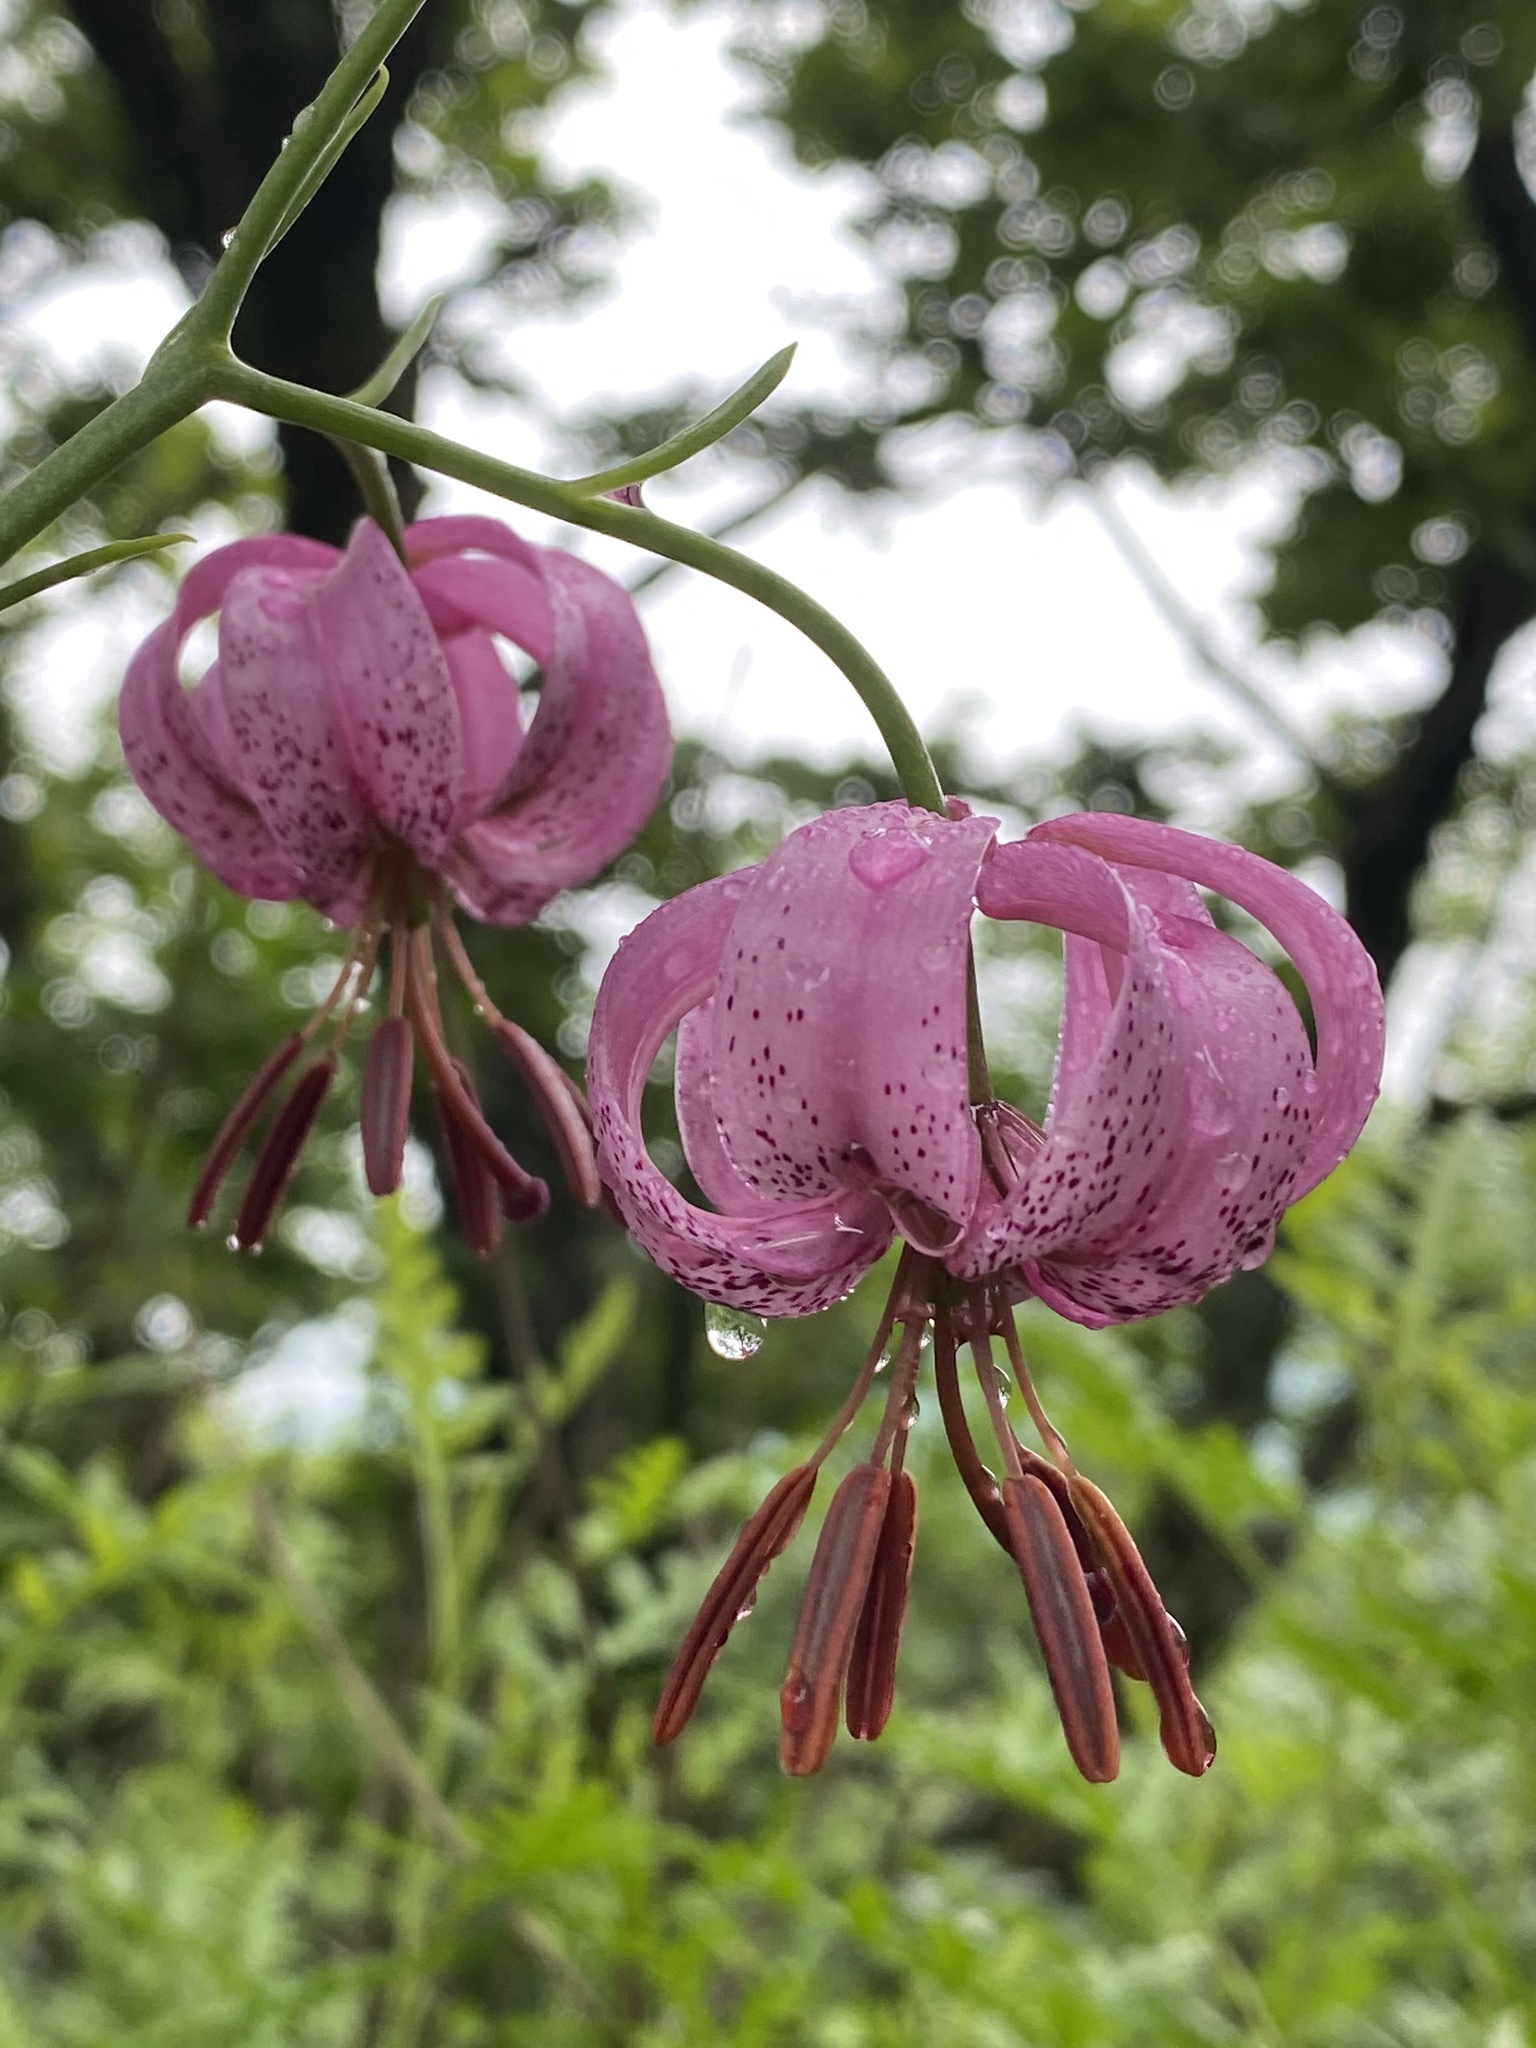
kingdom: Plantae
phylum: Tracheophyta
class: Liliopsida
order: Liliales
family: Liliaceae
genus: Lilium
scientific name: Lilium cernuum
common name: Nodding lily
